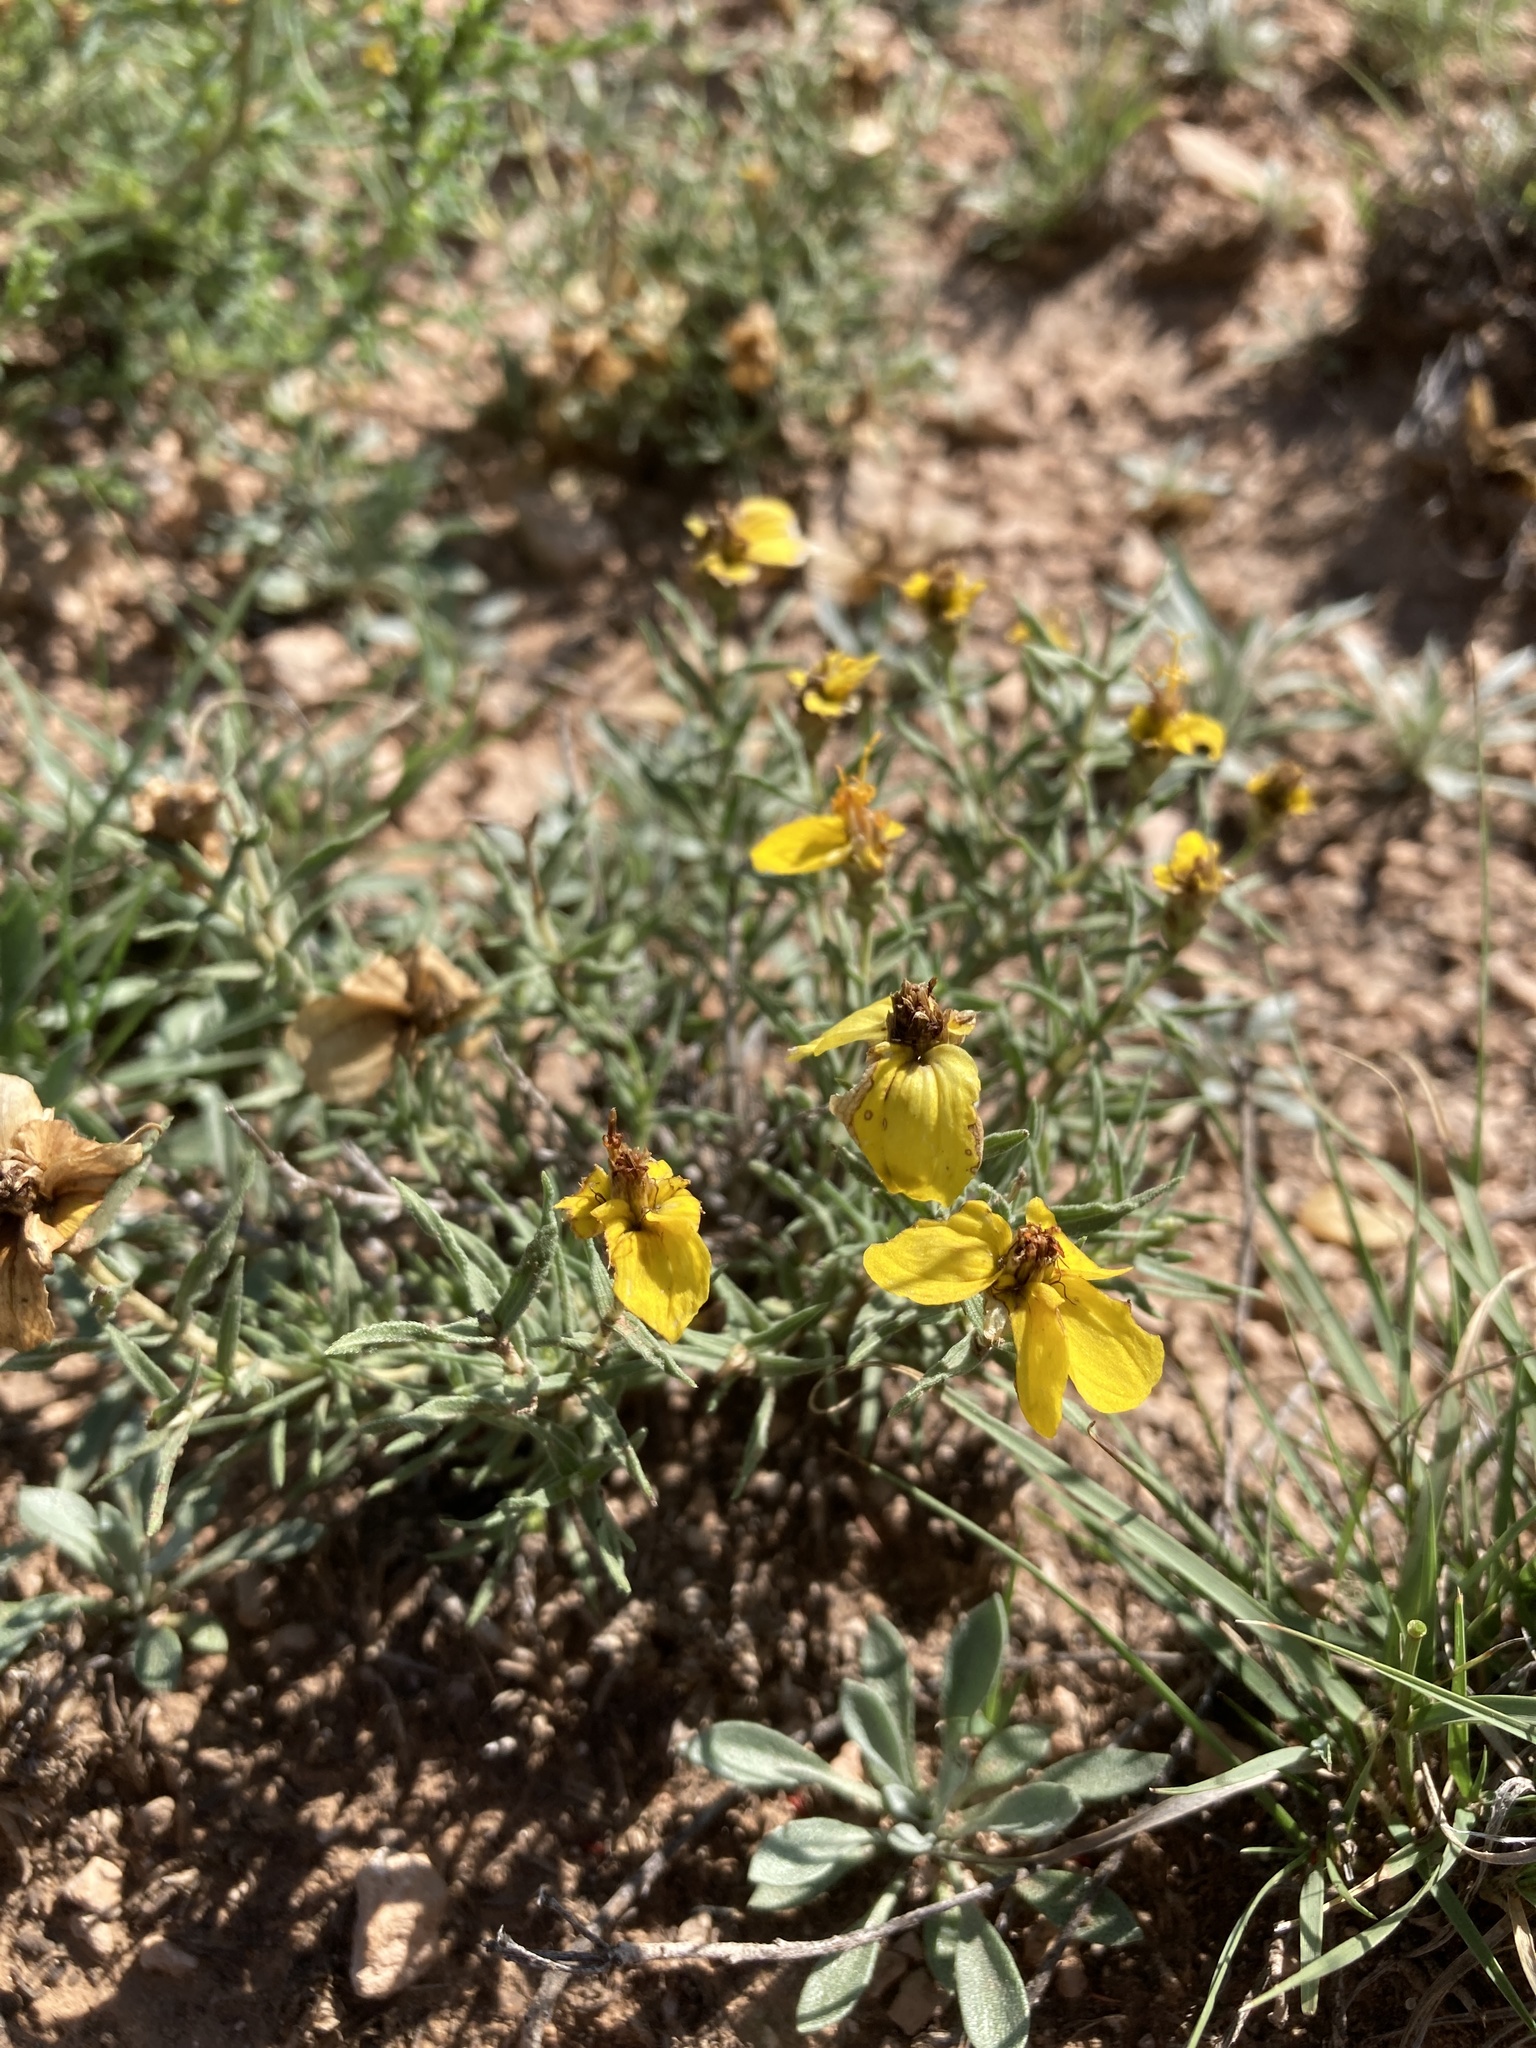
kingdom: Plantae
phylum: Tracheophyta
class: Magnoliopsida
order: Asterales
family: Asteraceae
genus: Zinnia
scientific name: Zinnia grandiflora
